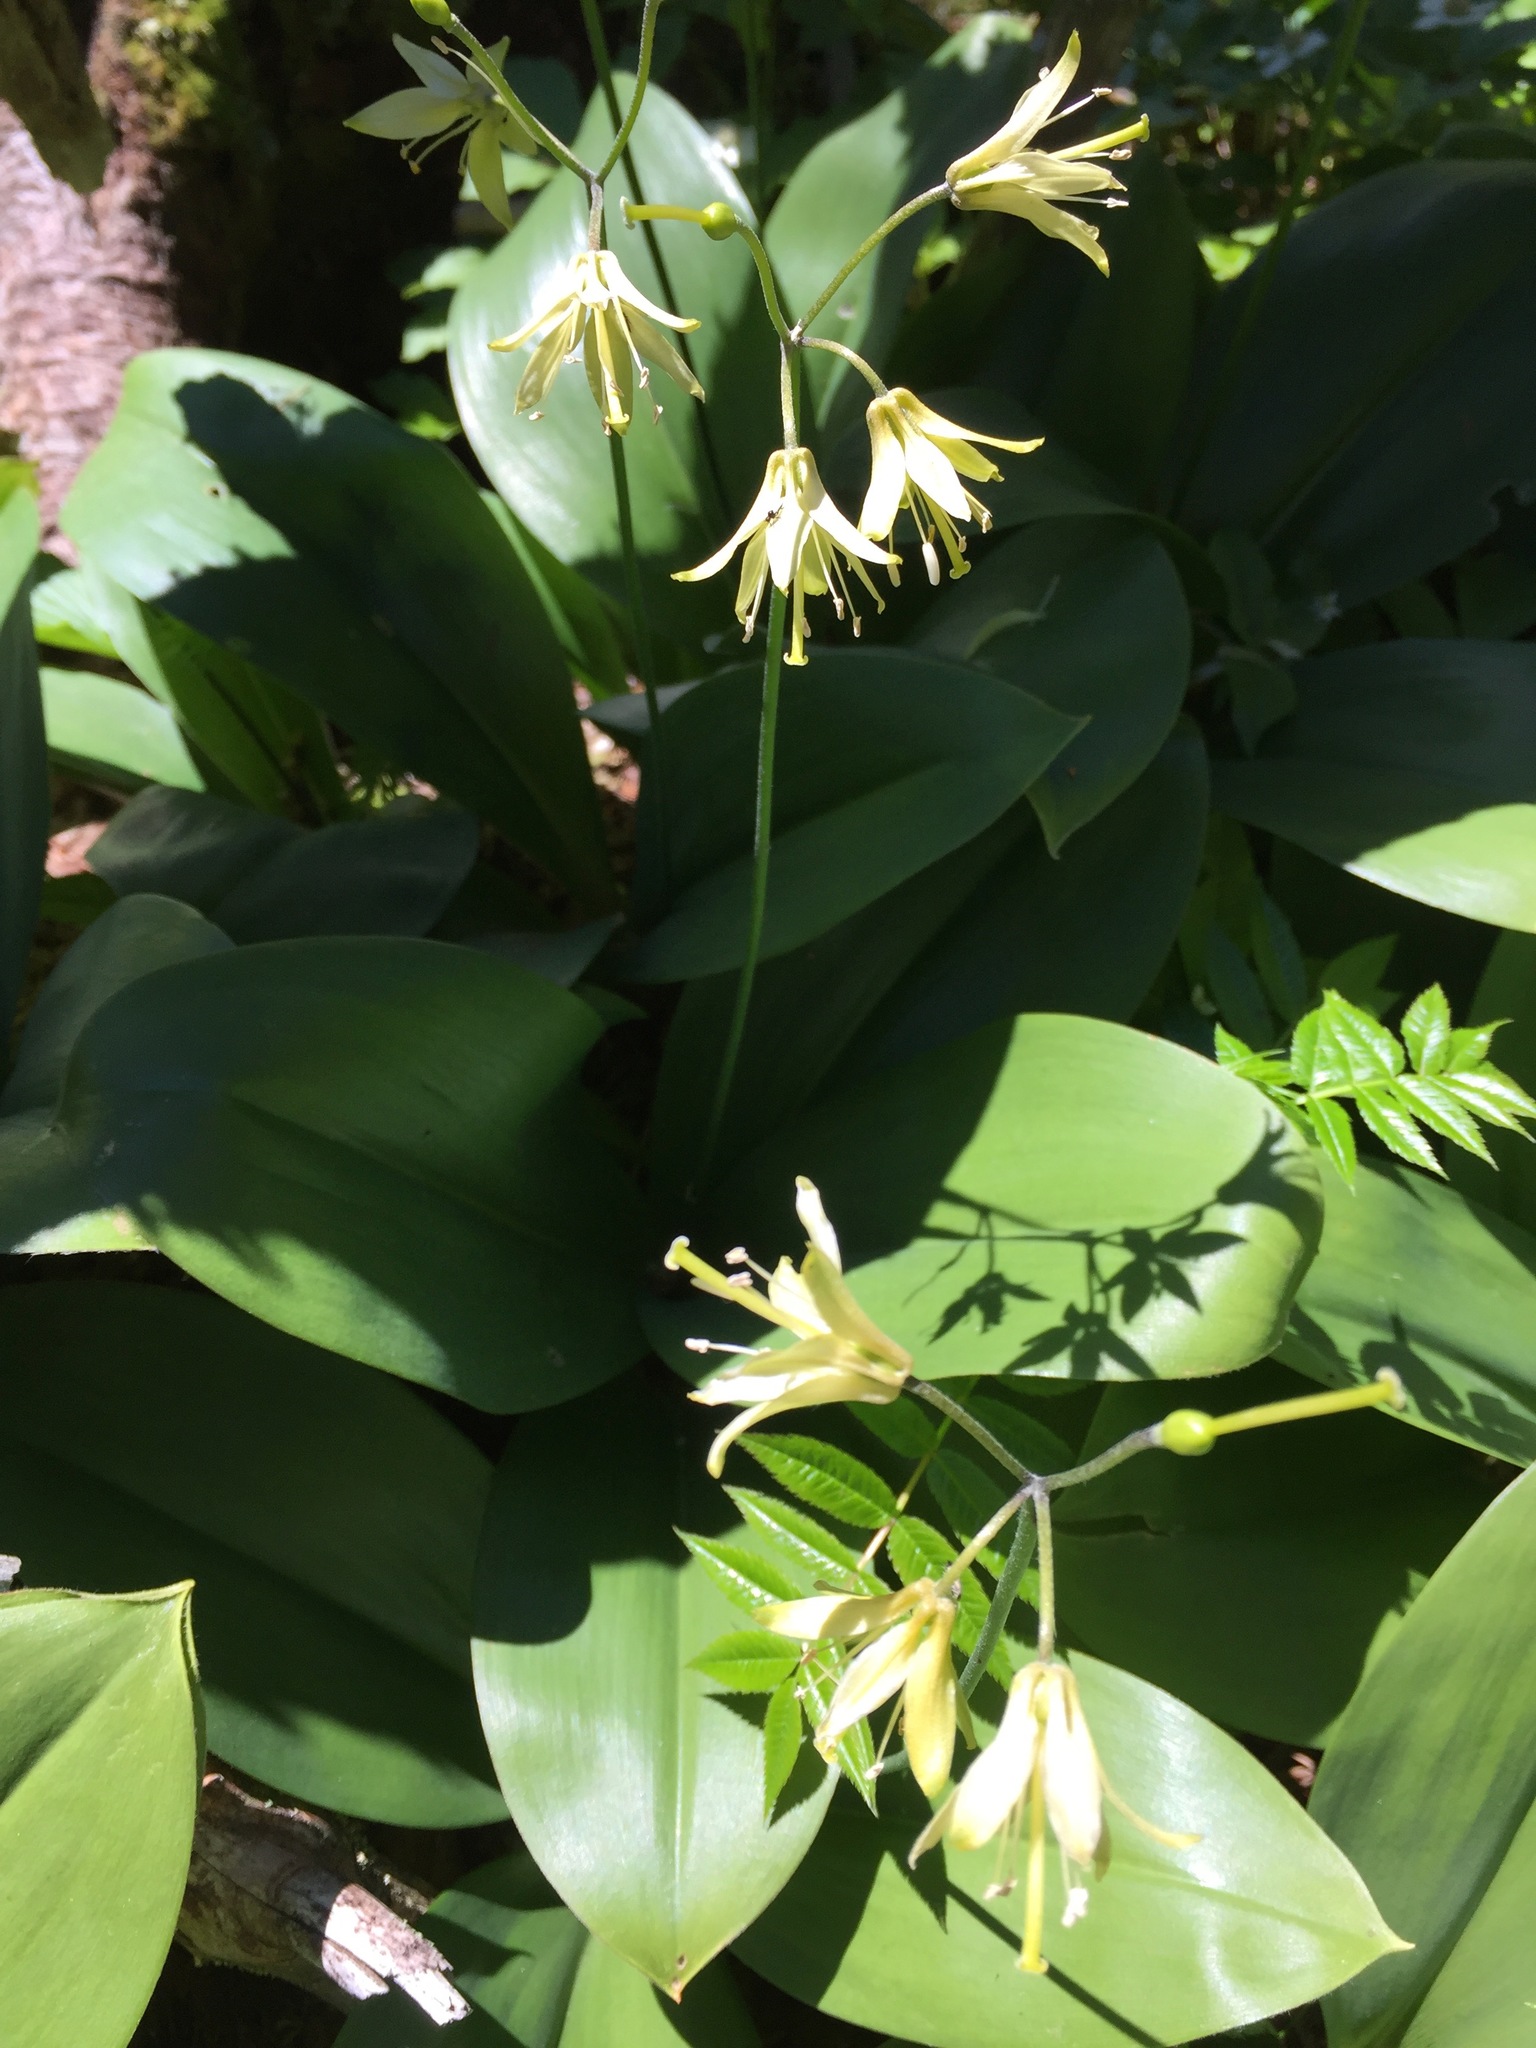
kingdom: Plantae
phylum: Tracheophyta
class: Liliopsida
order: Liliales
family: Liliaceae
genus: Clintonia
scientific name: Clintonia borealis
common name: Yellow clintonia
